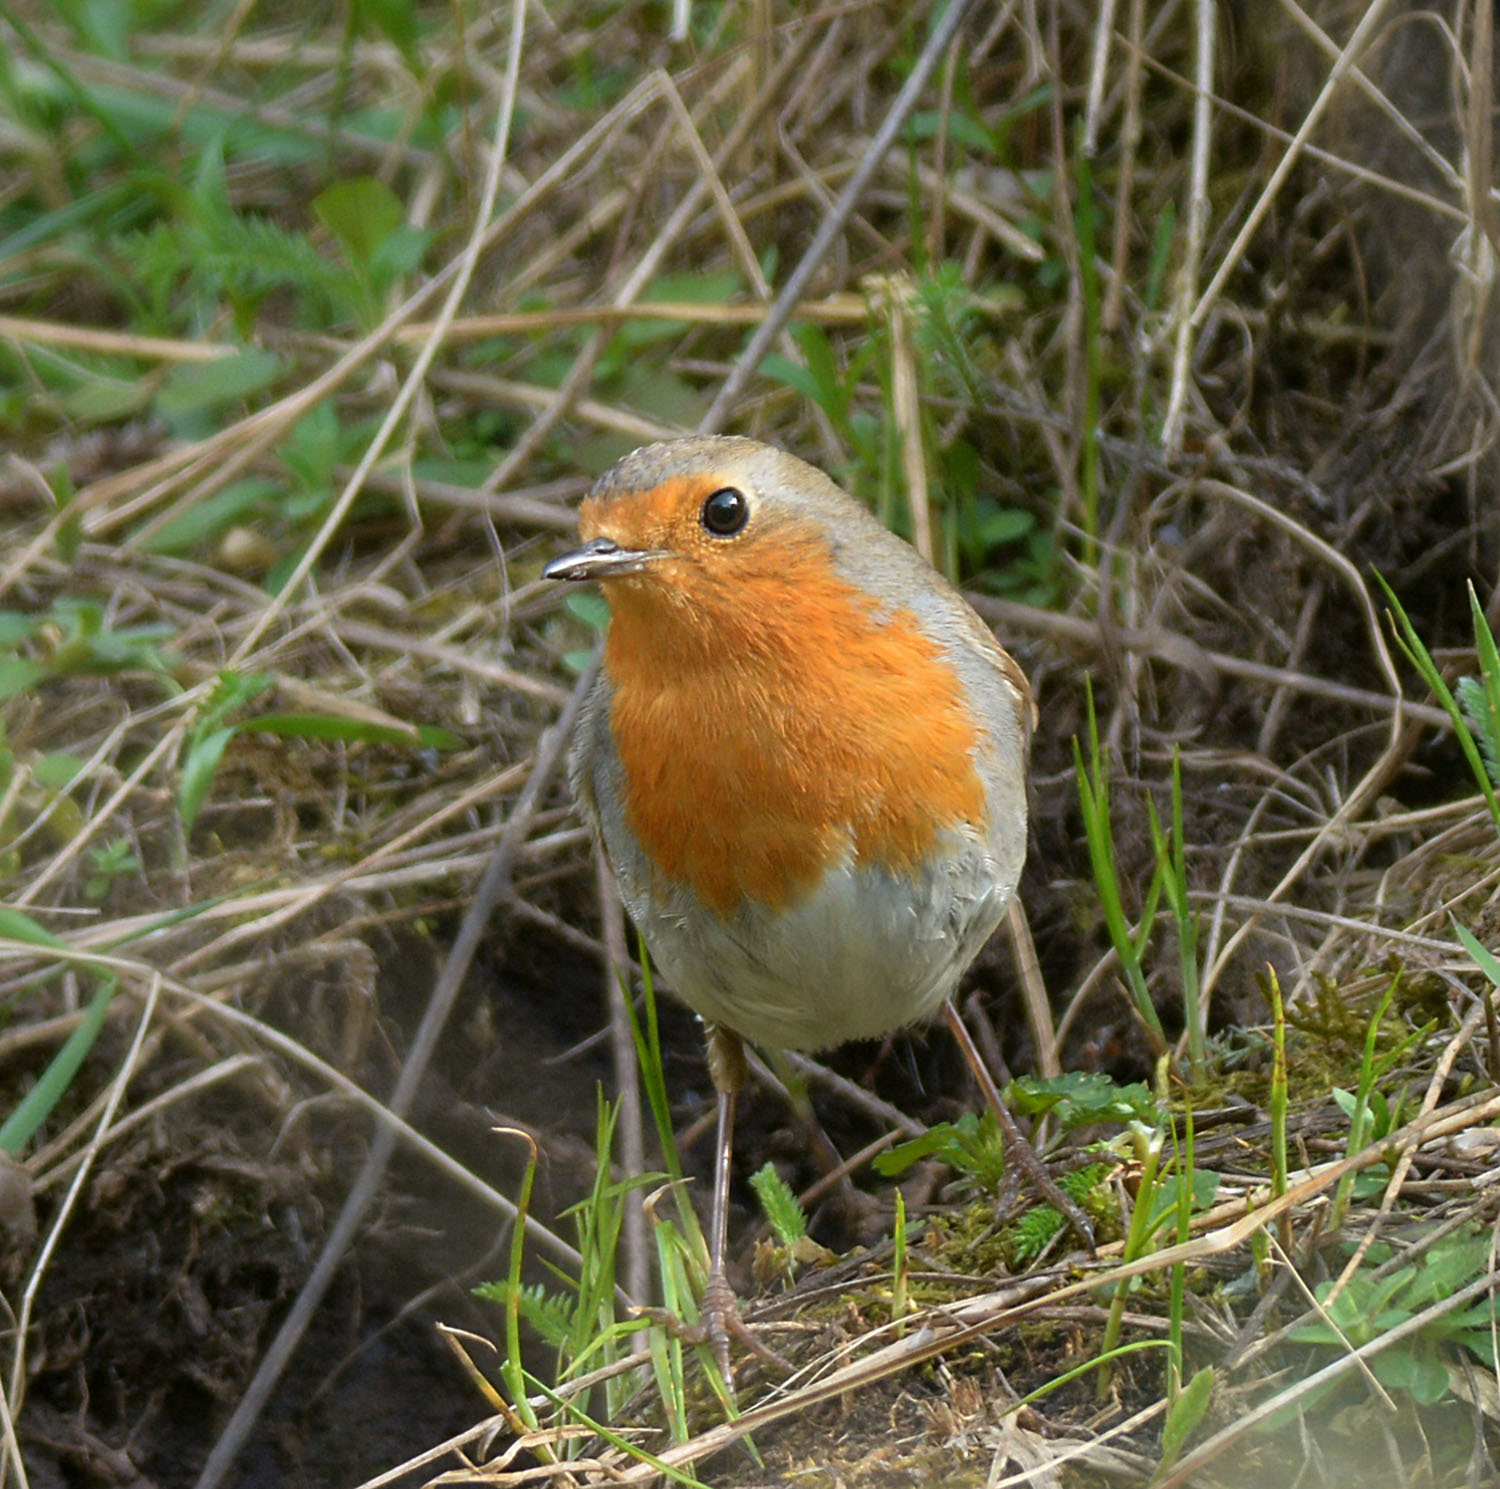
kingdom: Animalia
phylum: Chordata
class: Aves
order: Passeriformes
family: Muscicapidae
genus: Erithacus
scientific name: Erithacus rubecula
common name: European robin
